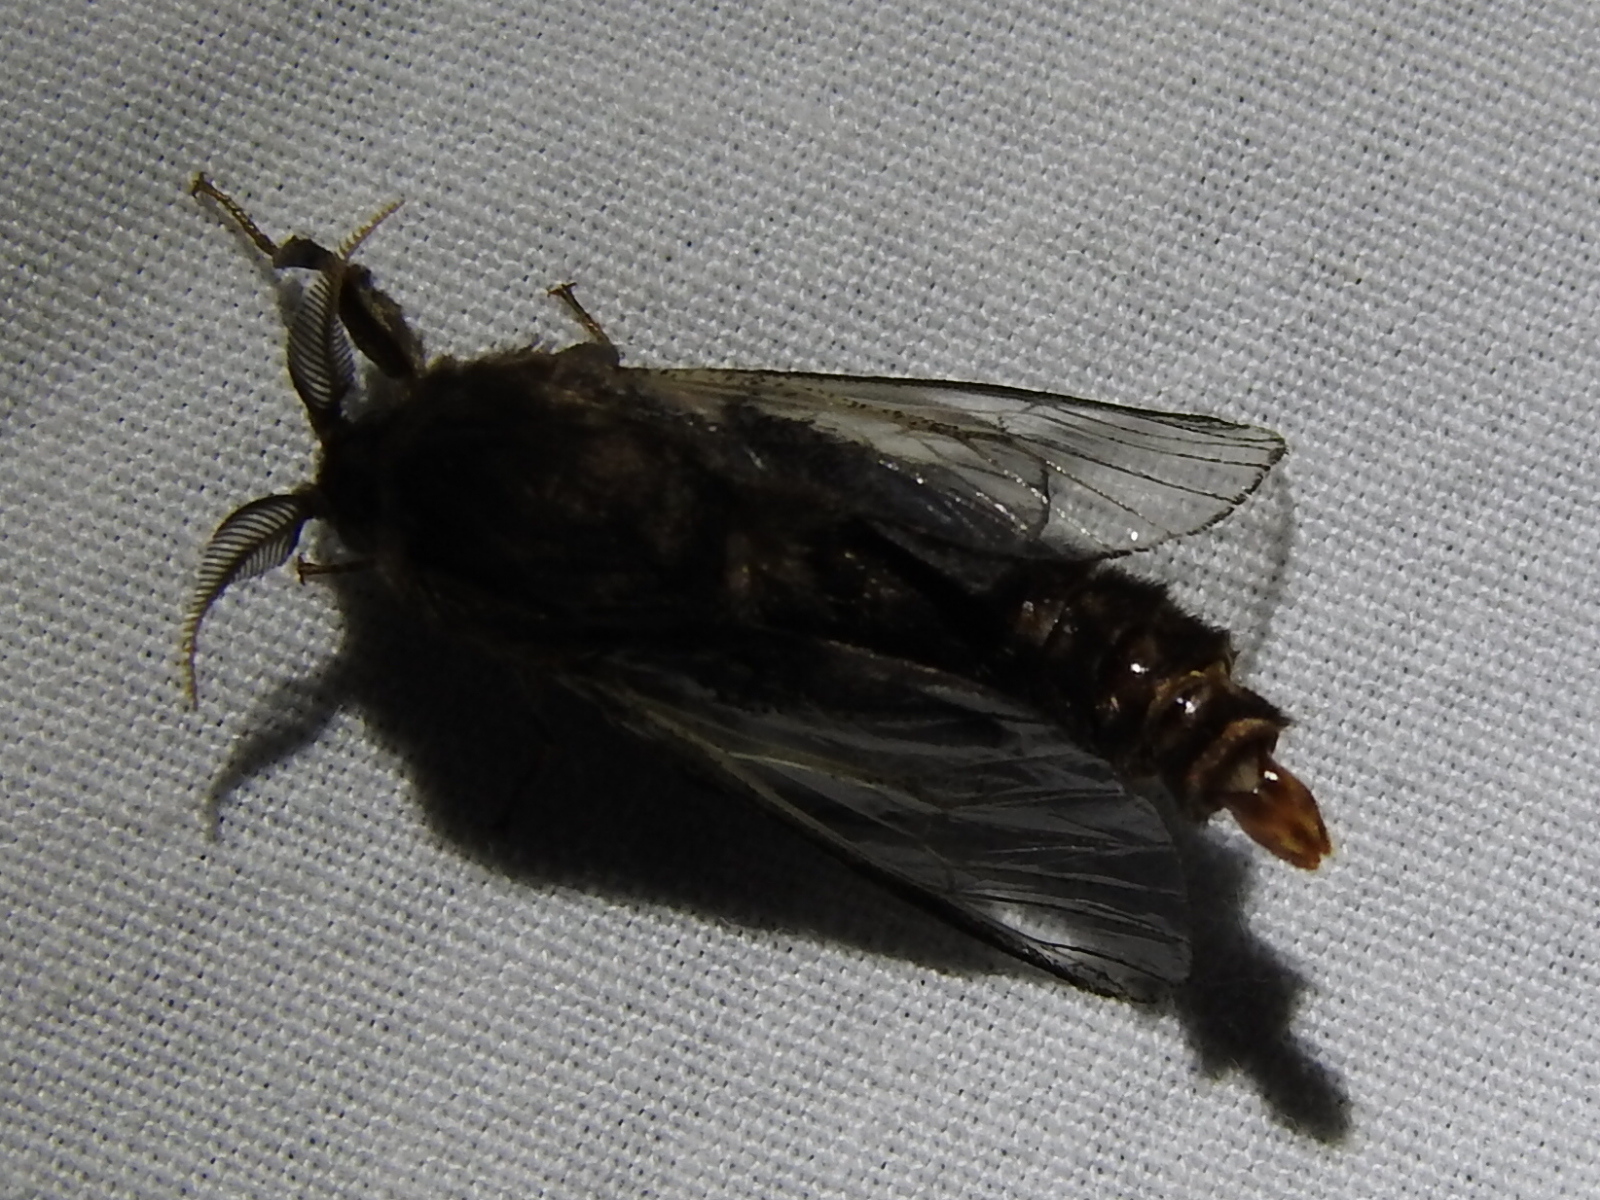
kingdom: Animalia
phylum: Arthropoda
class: Insecta
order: Lepidoptera
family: Psychidae
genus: Thyridopteryx
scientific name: Thyridopteryx ephemeraeformis
